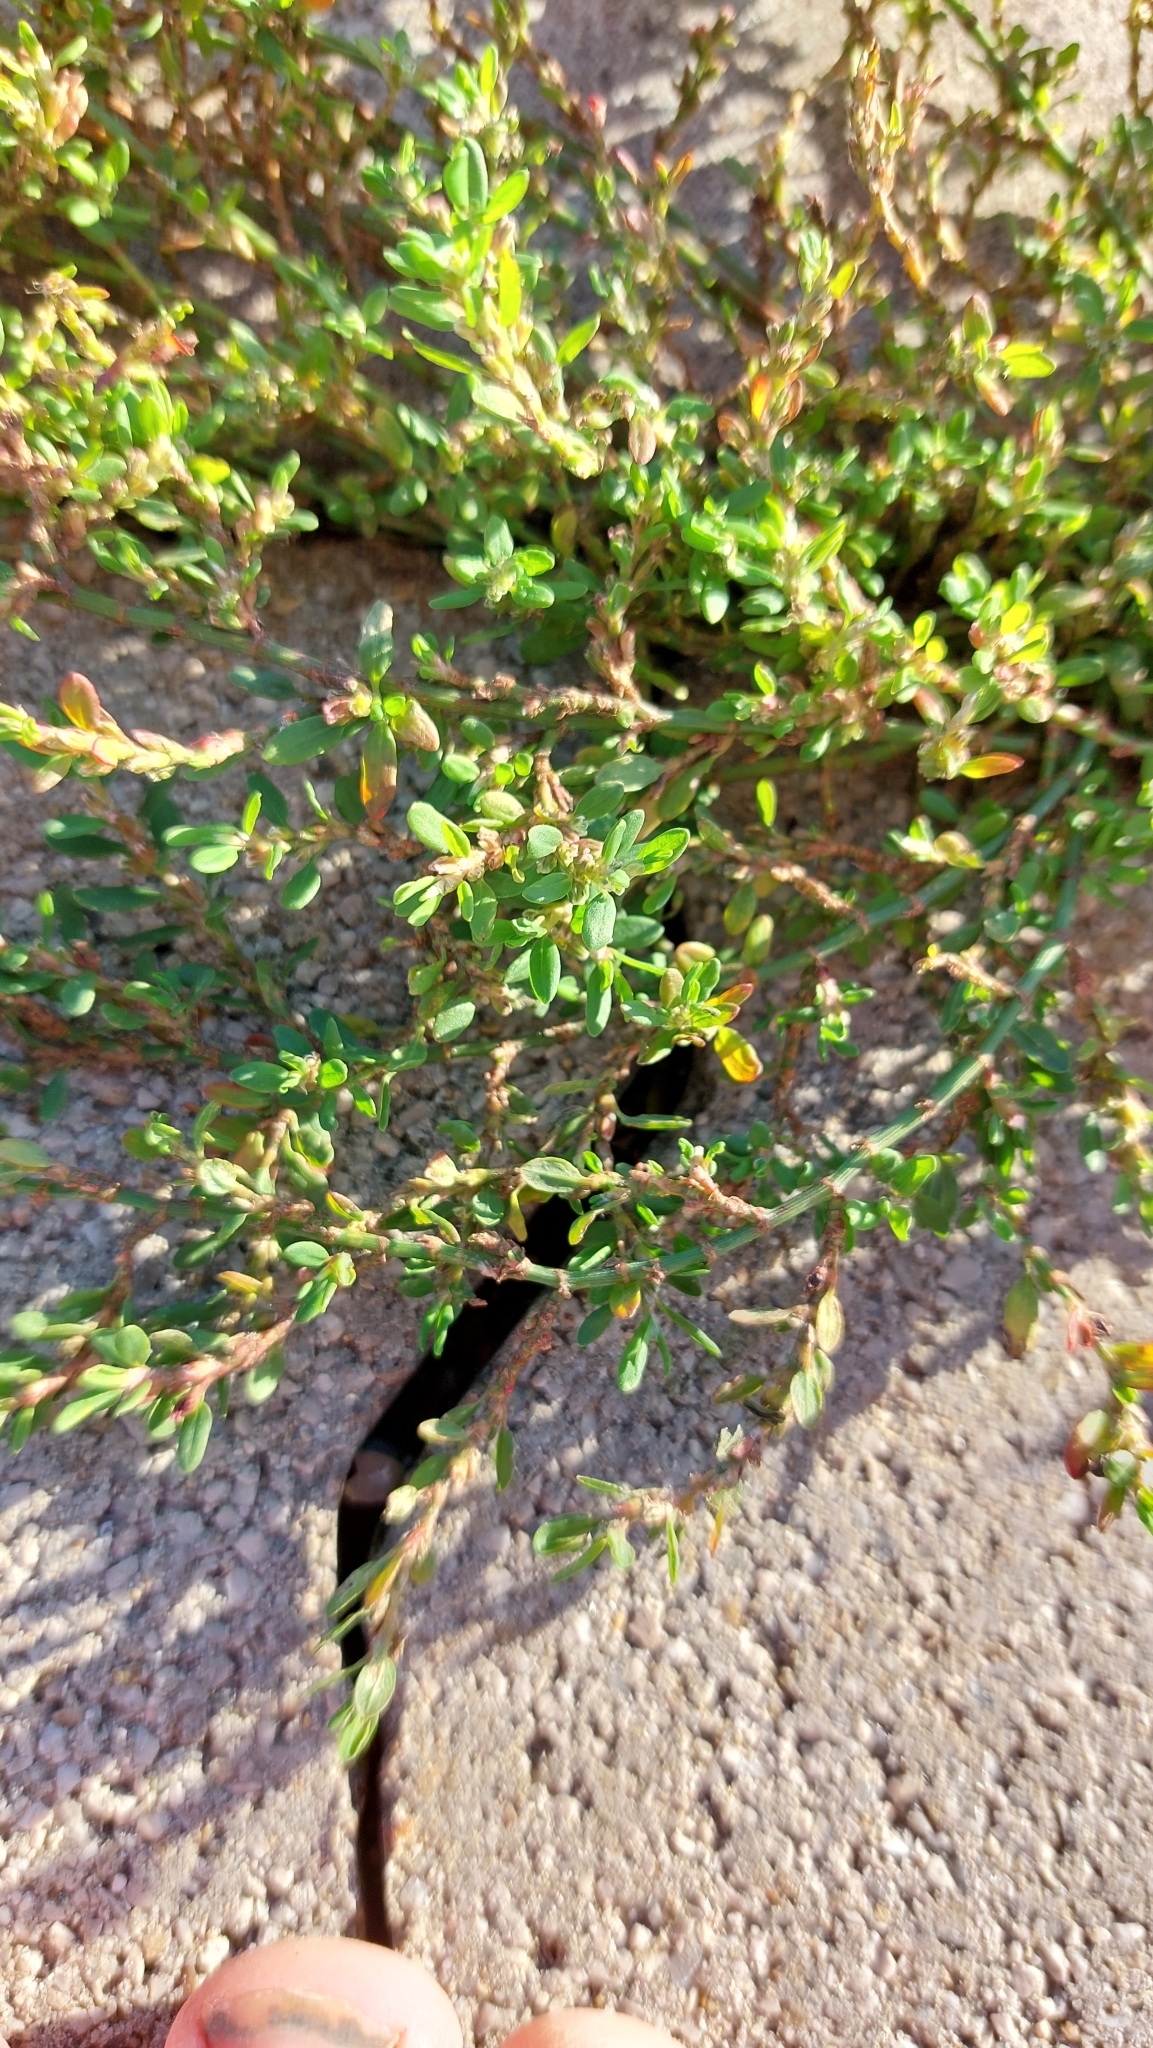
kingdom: Plantae
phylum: Tracheophyta
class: Magnoliopsida
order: Caryophyllales
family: Polygonaceae
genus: Polygonum
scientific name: Polygonum aviculare
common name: Prostrate knotweed
